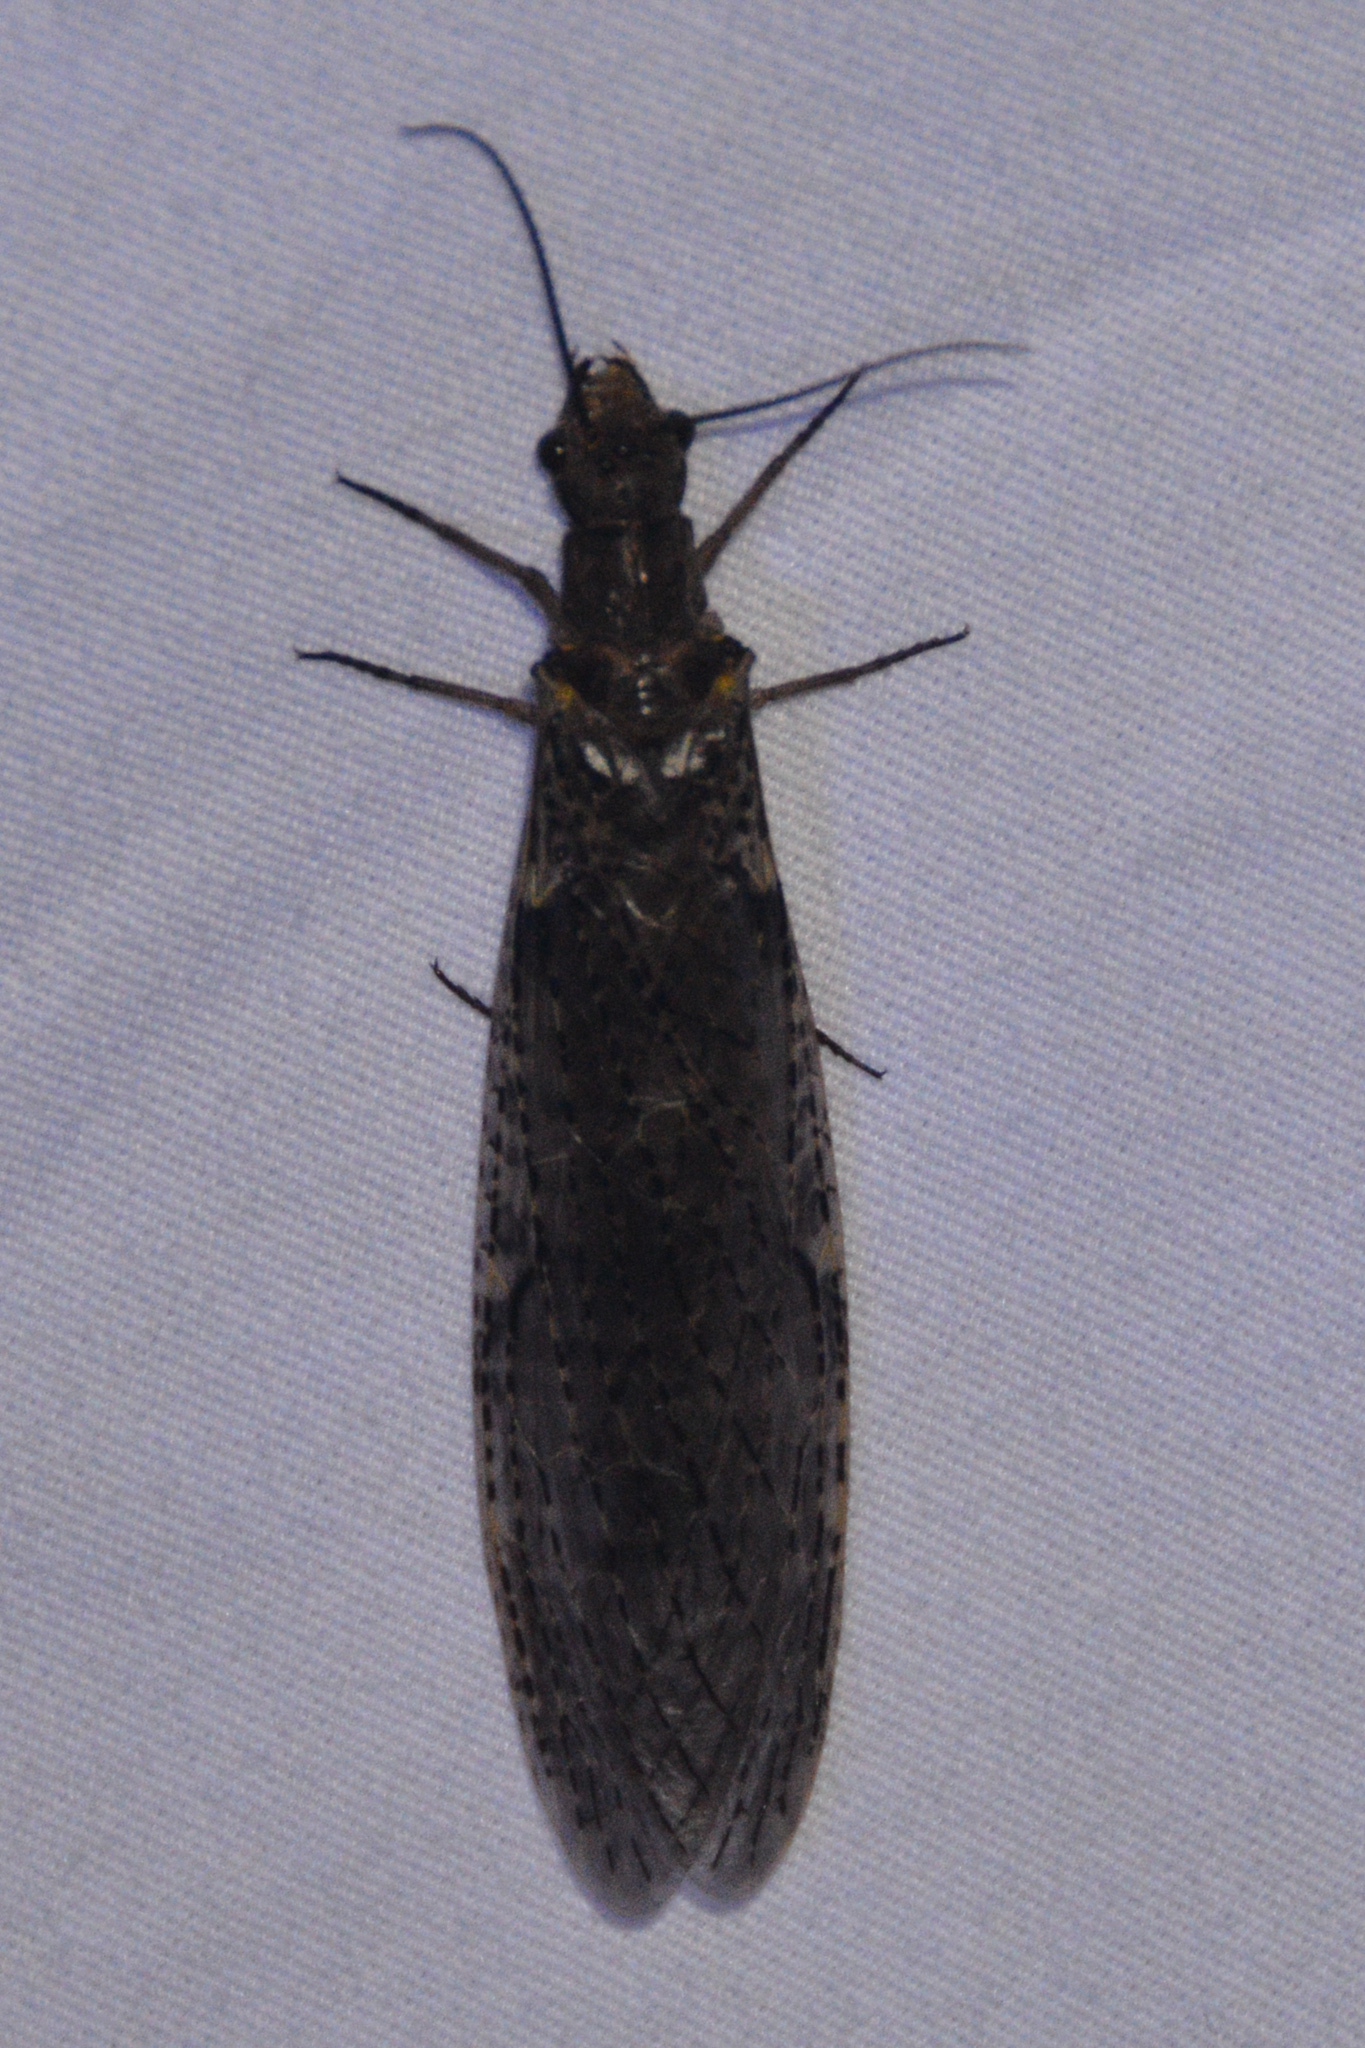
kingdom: Animalia
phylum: Arthropoda
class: Insecta
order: Megaloptera
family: Corydalidae
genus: Chauliodes
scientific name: Chauliodes rastricornis
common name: Spring fishfly
